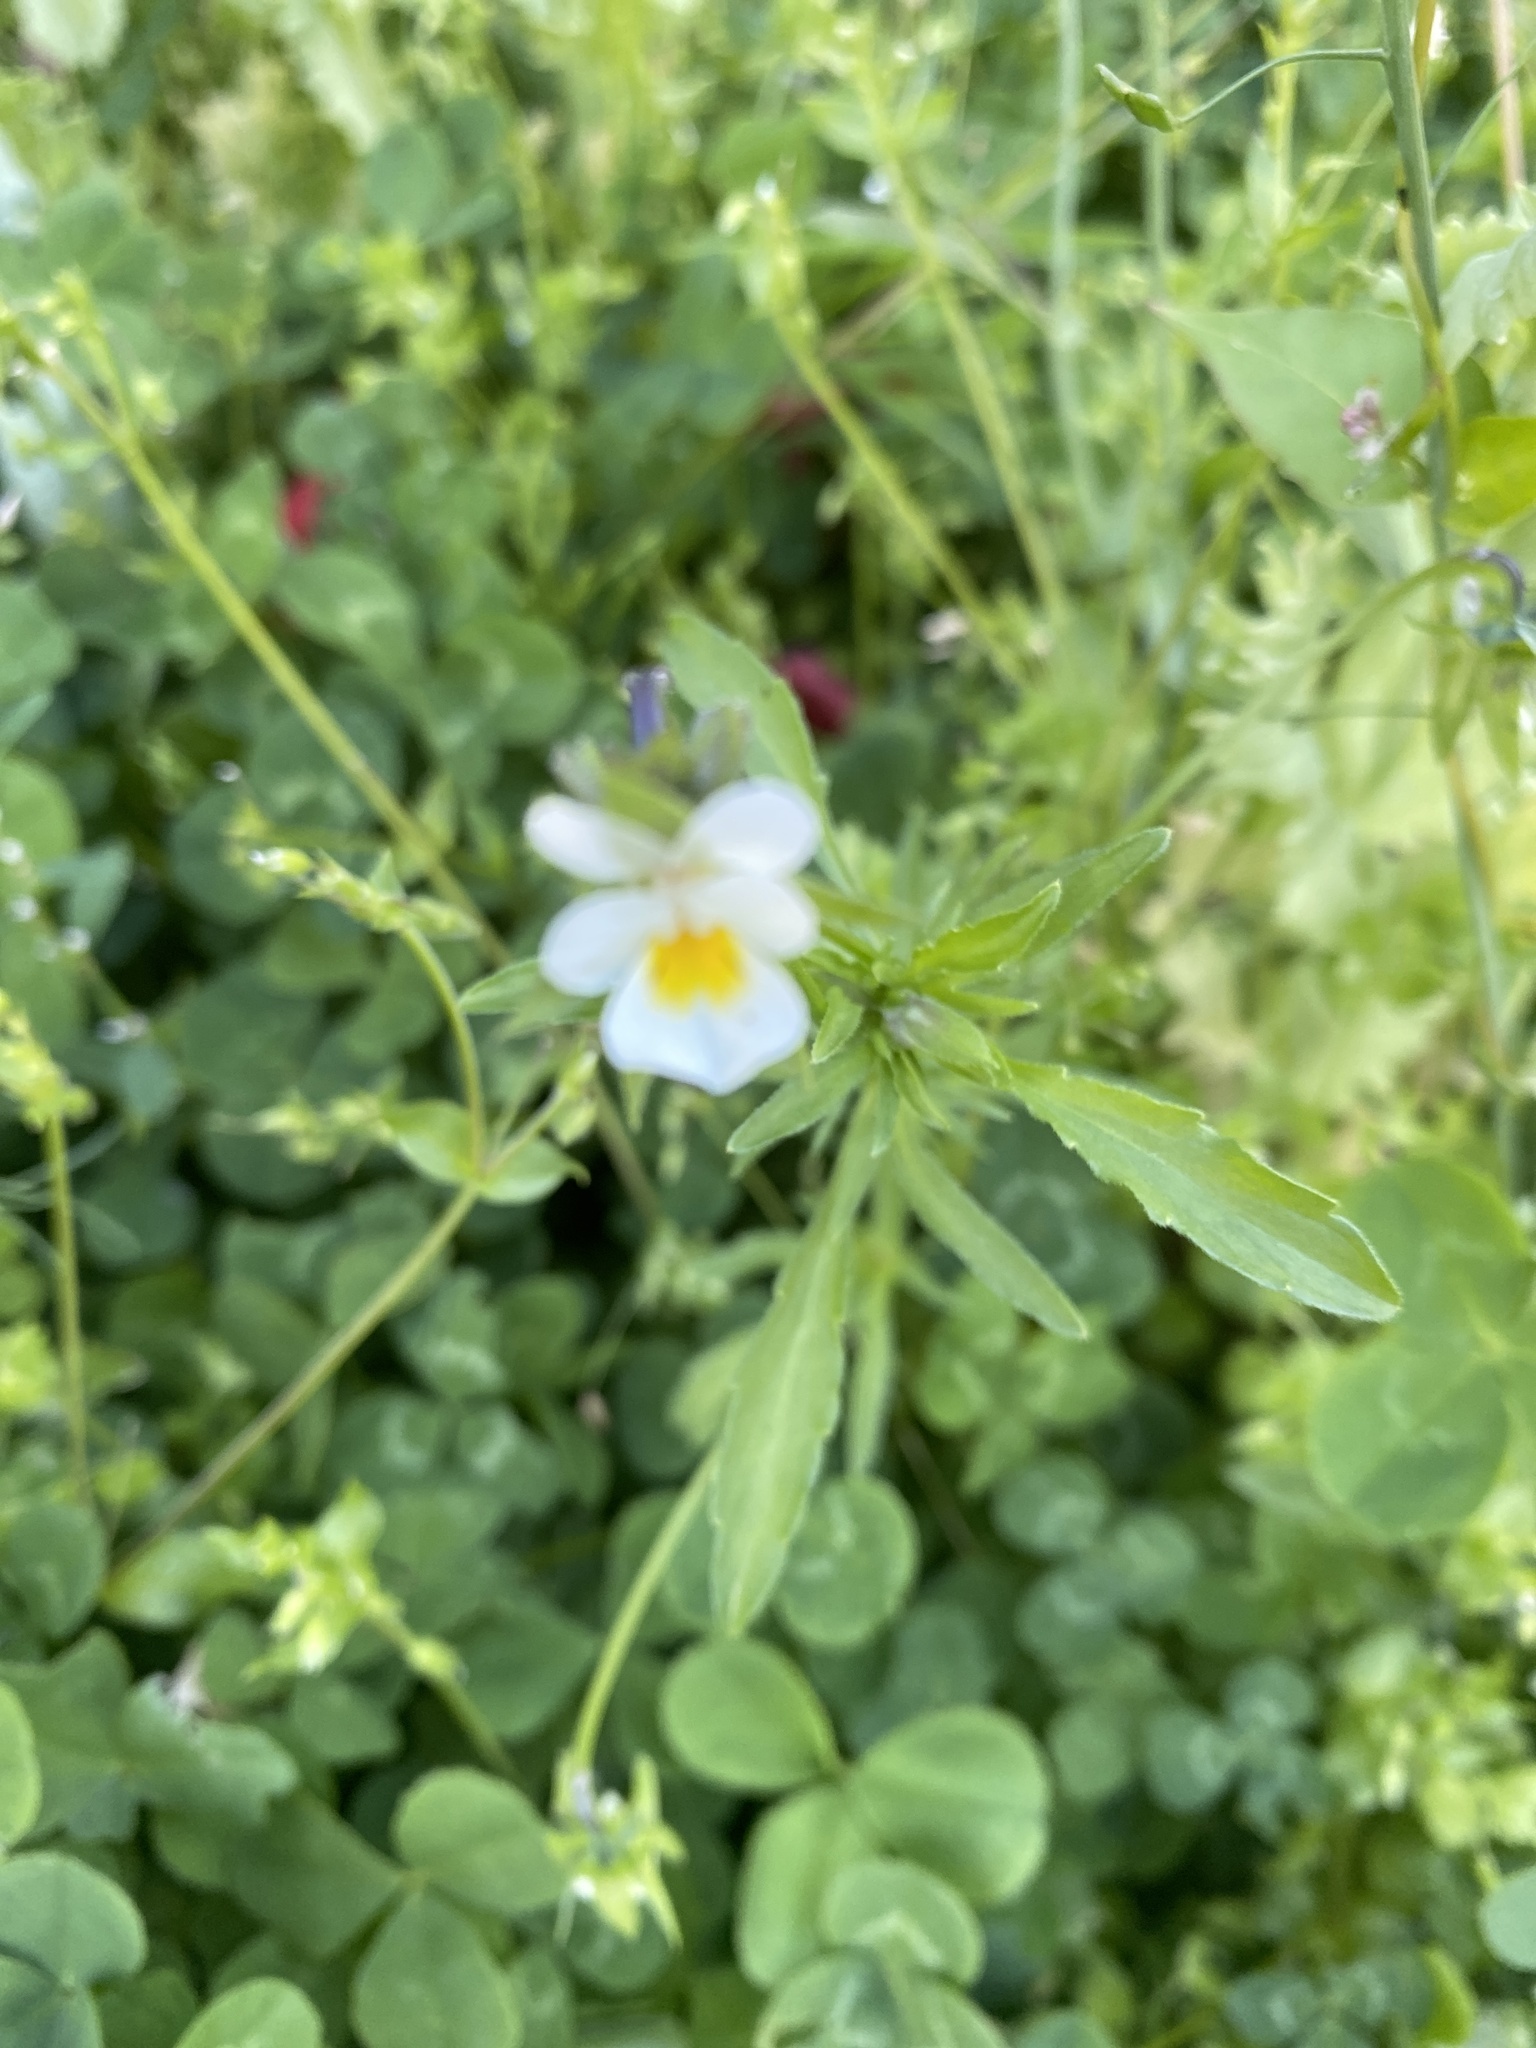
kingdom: Plantae
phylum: Tracheophyta
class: Magnoliopsida
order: Malpighiales
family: Violaceae
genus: Viola
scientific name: Viola arvensis
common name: Field pansy
